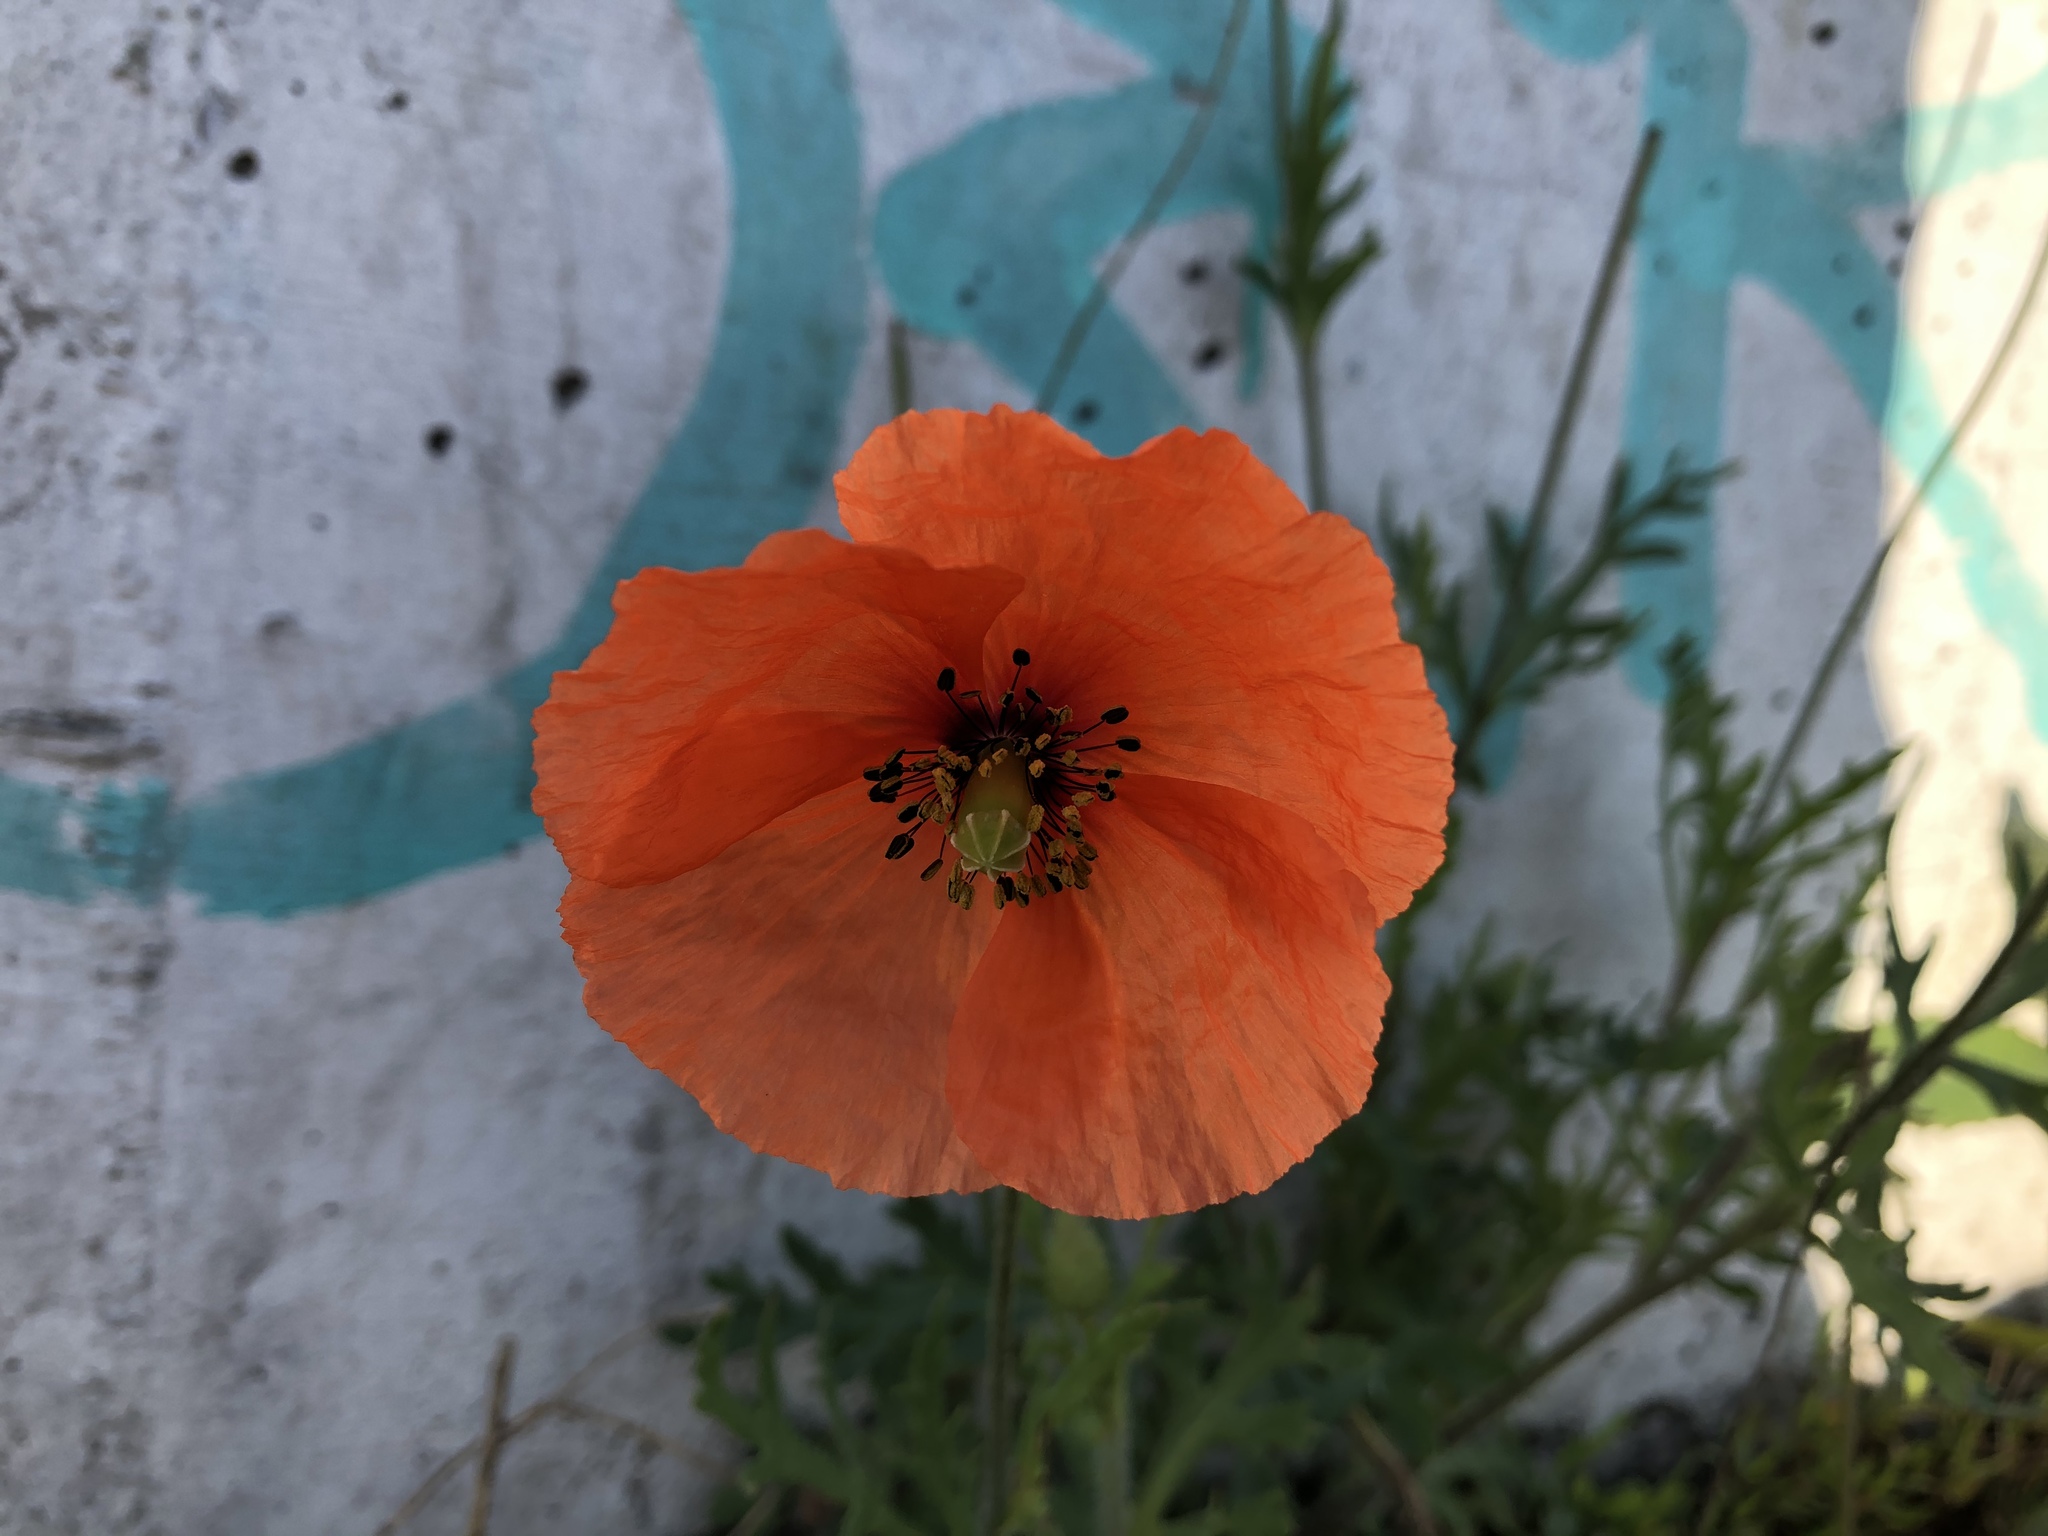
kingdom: Plantae
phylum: Tracheophyta
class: Magnoliopsida
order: Ranunculales
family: Papaveraceae
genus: Papaver
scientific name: Papaver dubium
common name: Long-headed poppy
